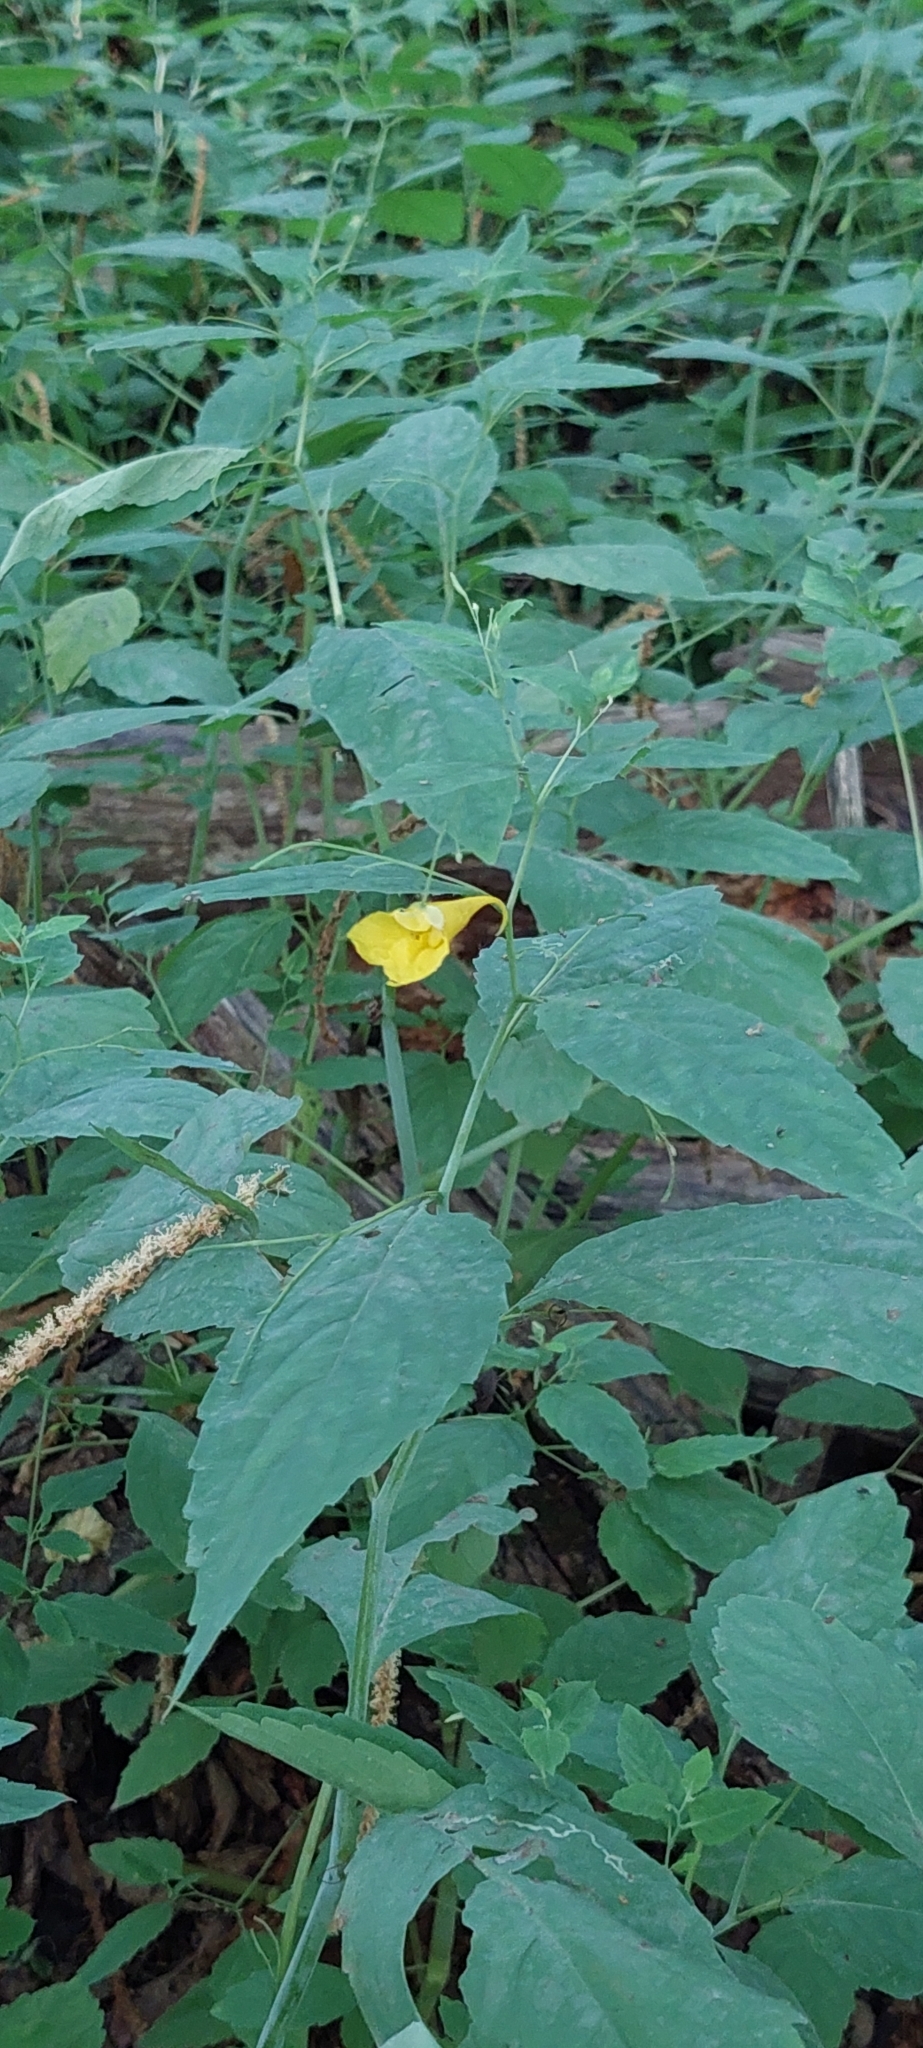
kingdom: Plantae
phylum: Tracheophyta
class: Magnoliopsida
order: Ericales
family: Balsaminaceae
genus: Impatiens
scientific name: Impatiens noli-tangere
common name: Touch-me-not balsam
